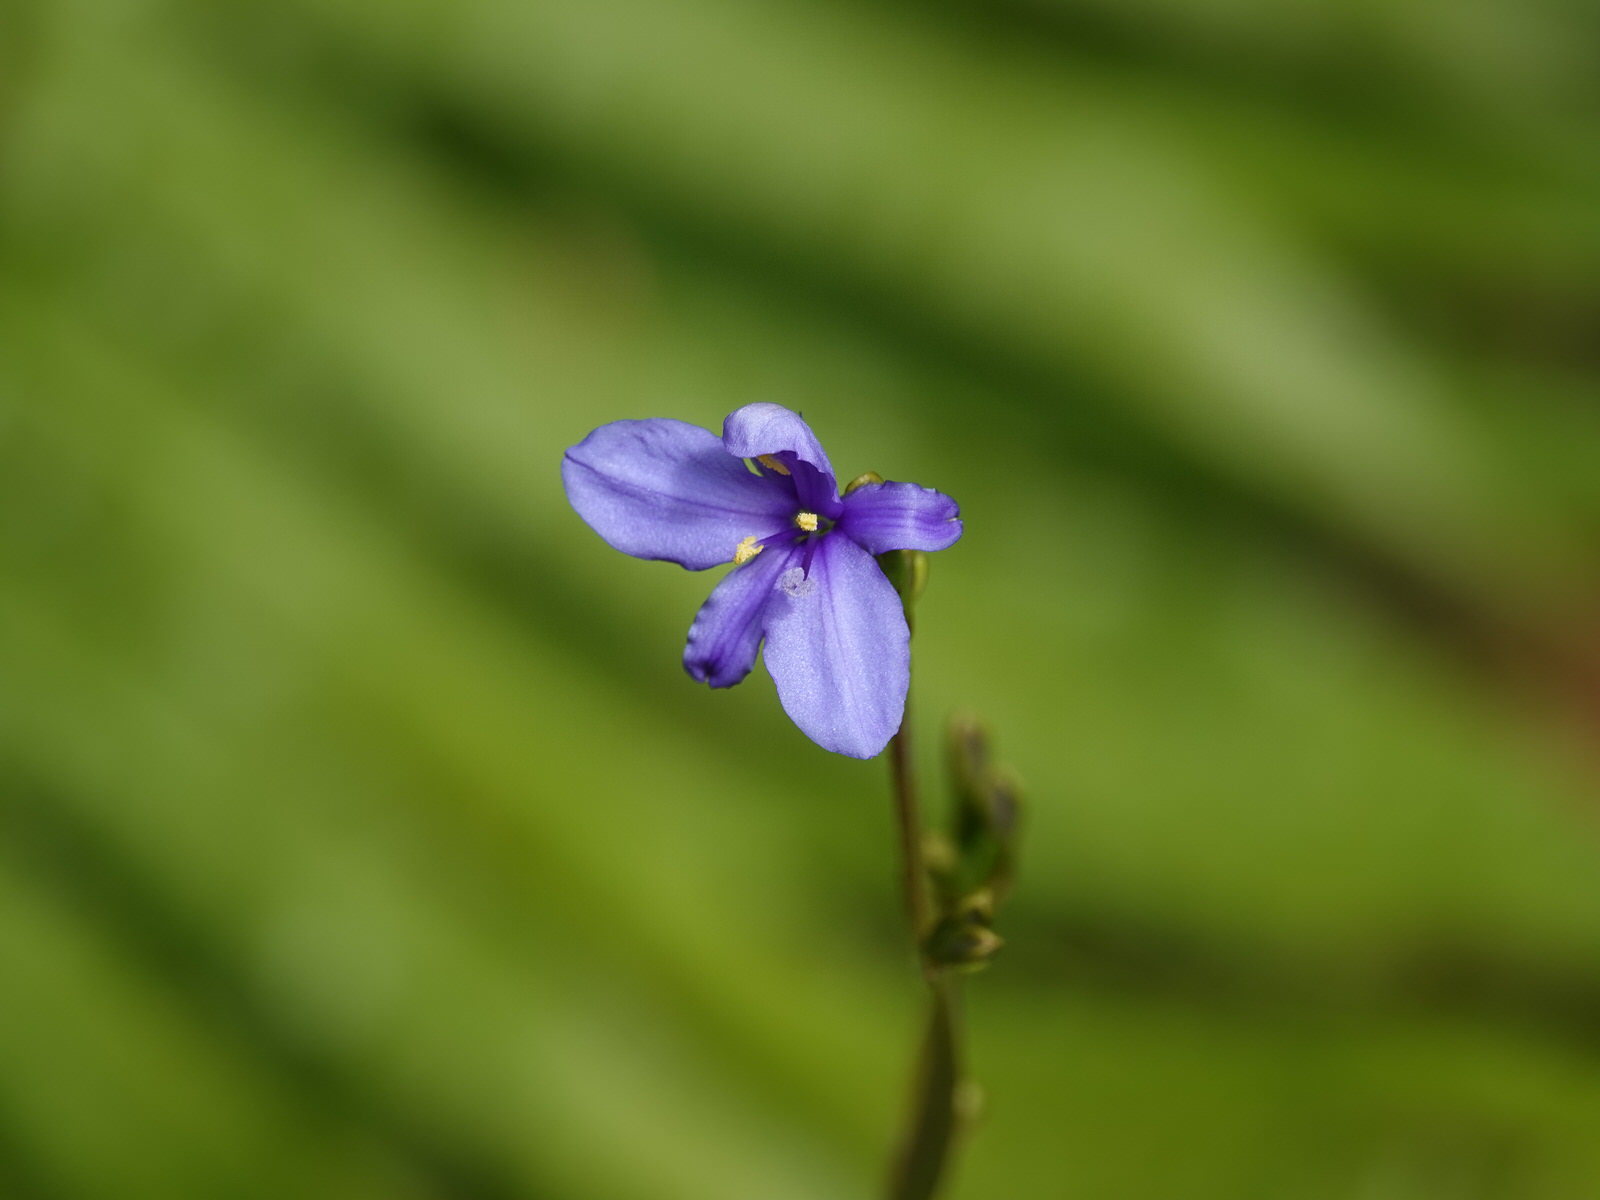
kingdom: Plantae
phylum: Tracheophyta
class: Liliopsida
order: Asparagales
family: Iridaceae
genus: Aristea
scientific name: Aristea ecklonii
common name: Blue corn-lily
